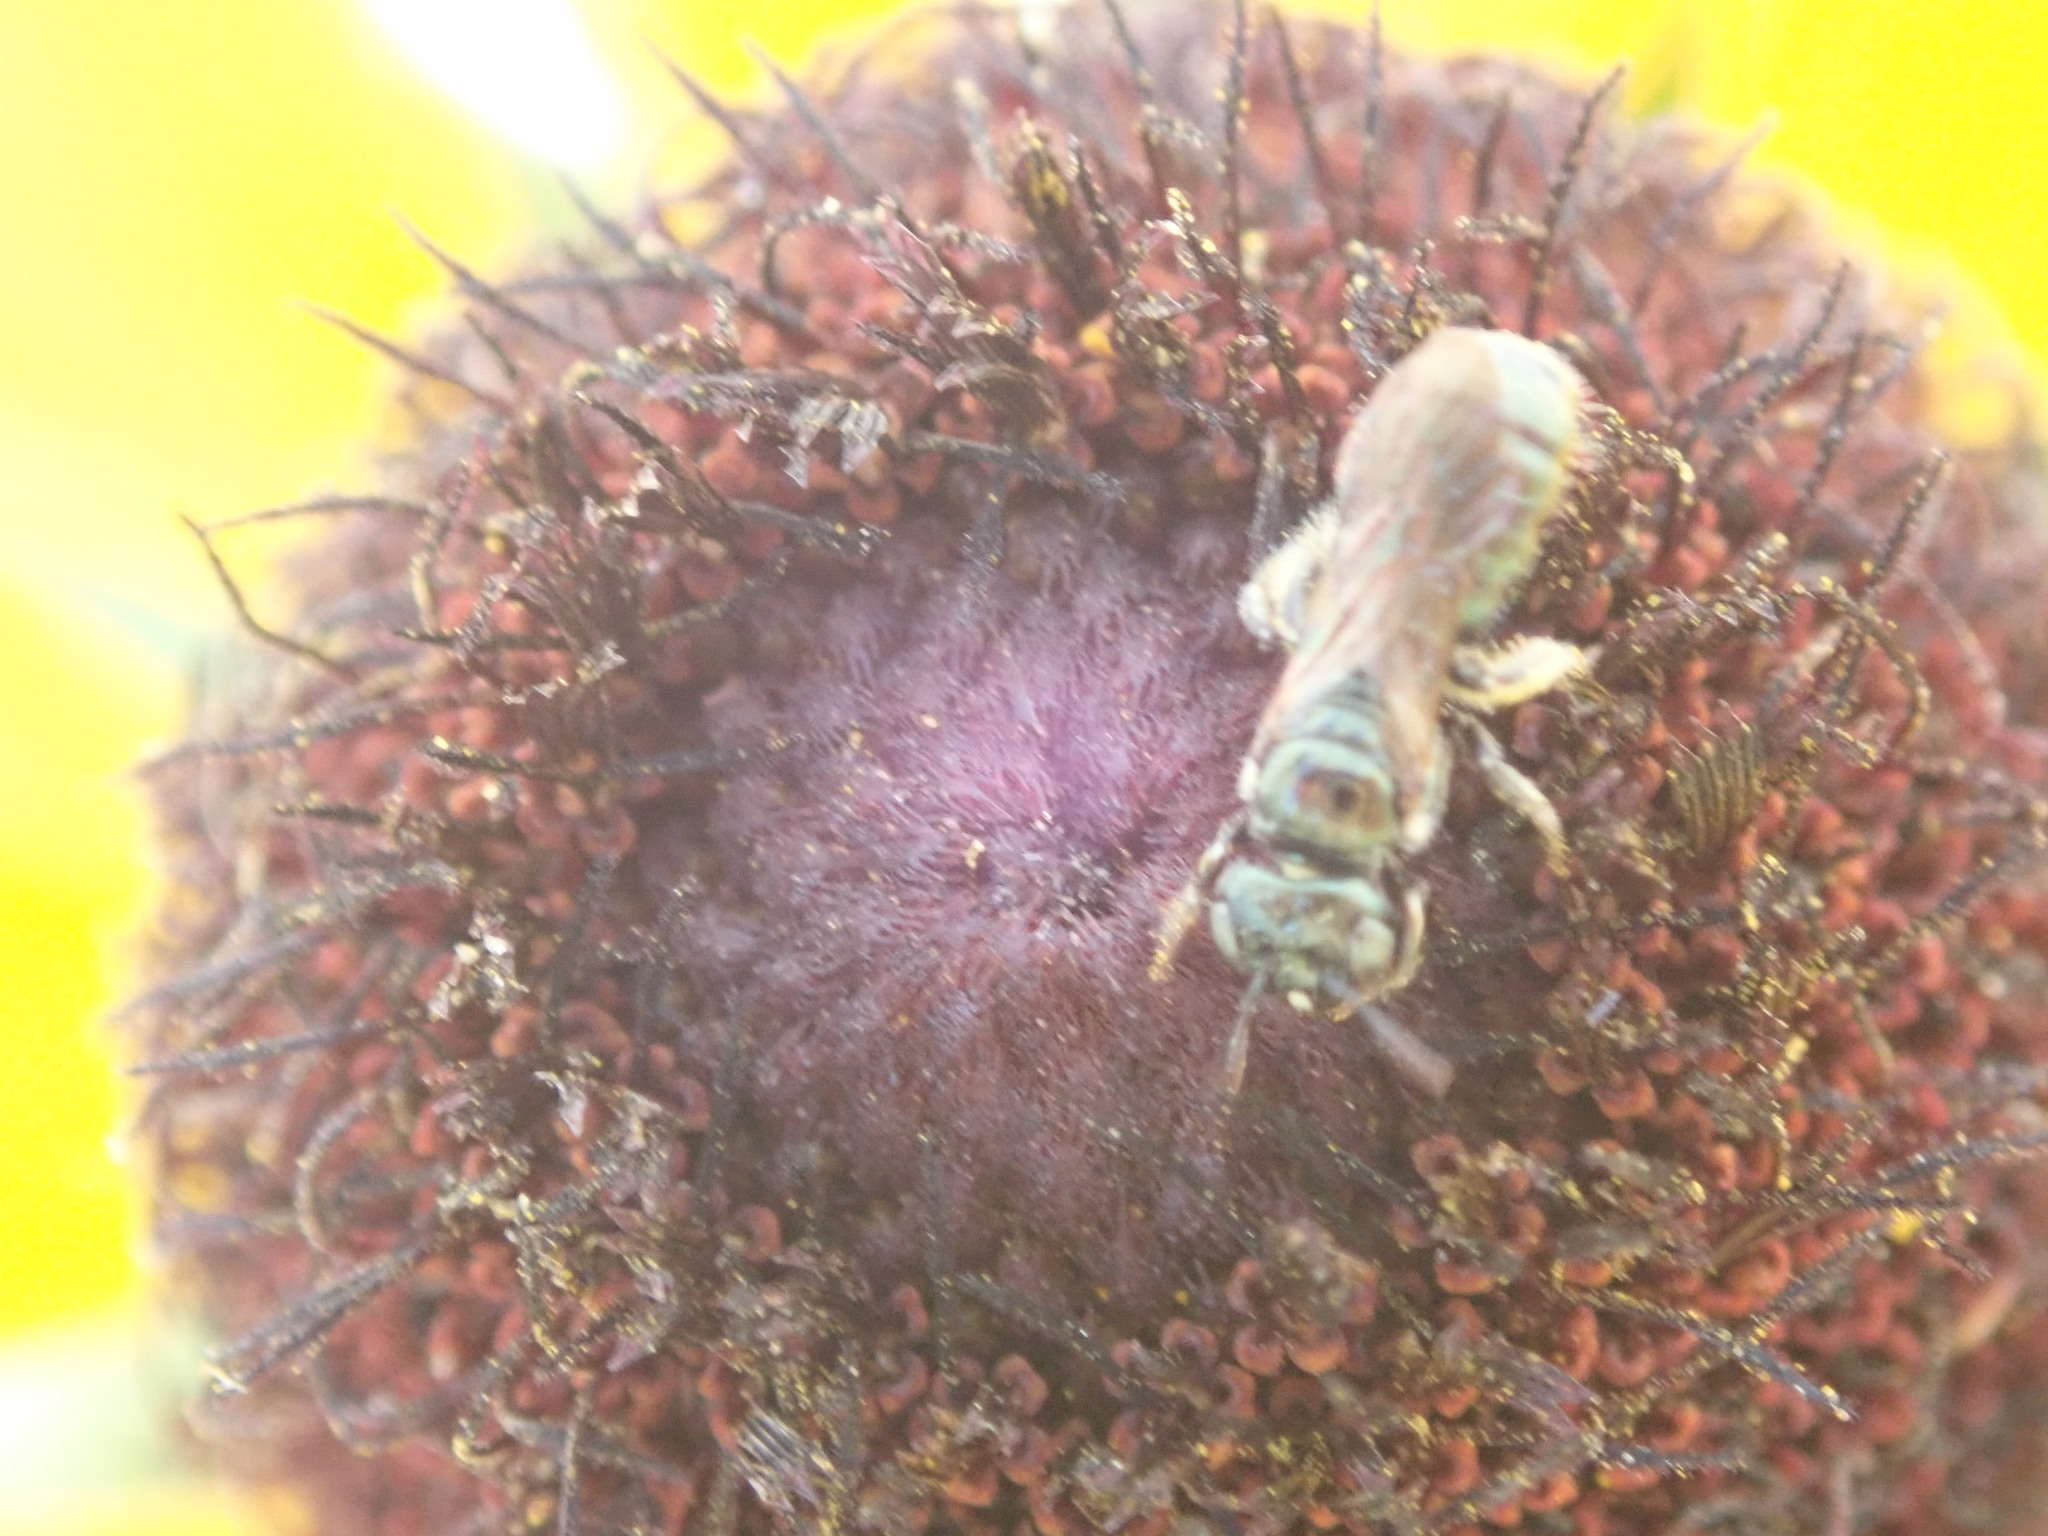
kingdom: Animalia
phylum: Arthropoda
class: Insecta
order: Hymenoptera
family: Apidae
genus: Ceratina
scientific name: Ceratina strenua
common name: Nimble carpenter bee
